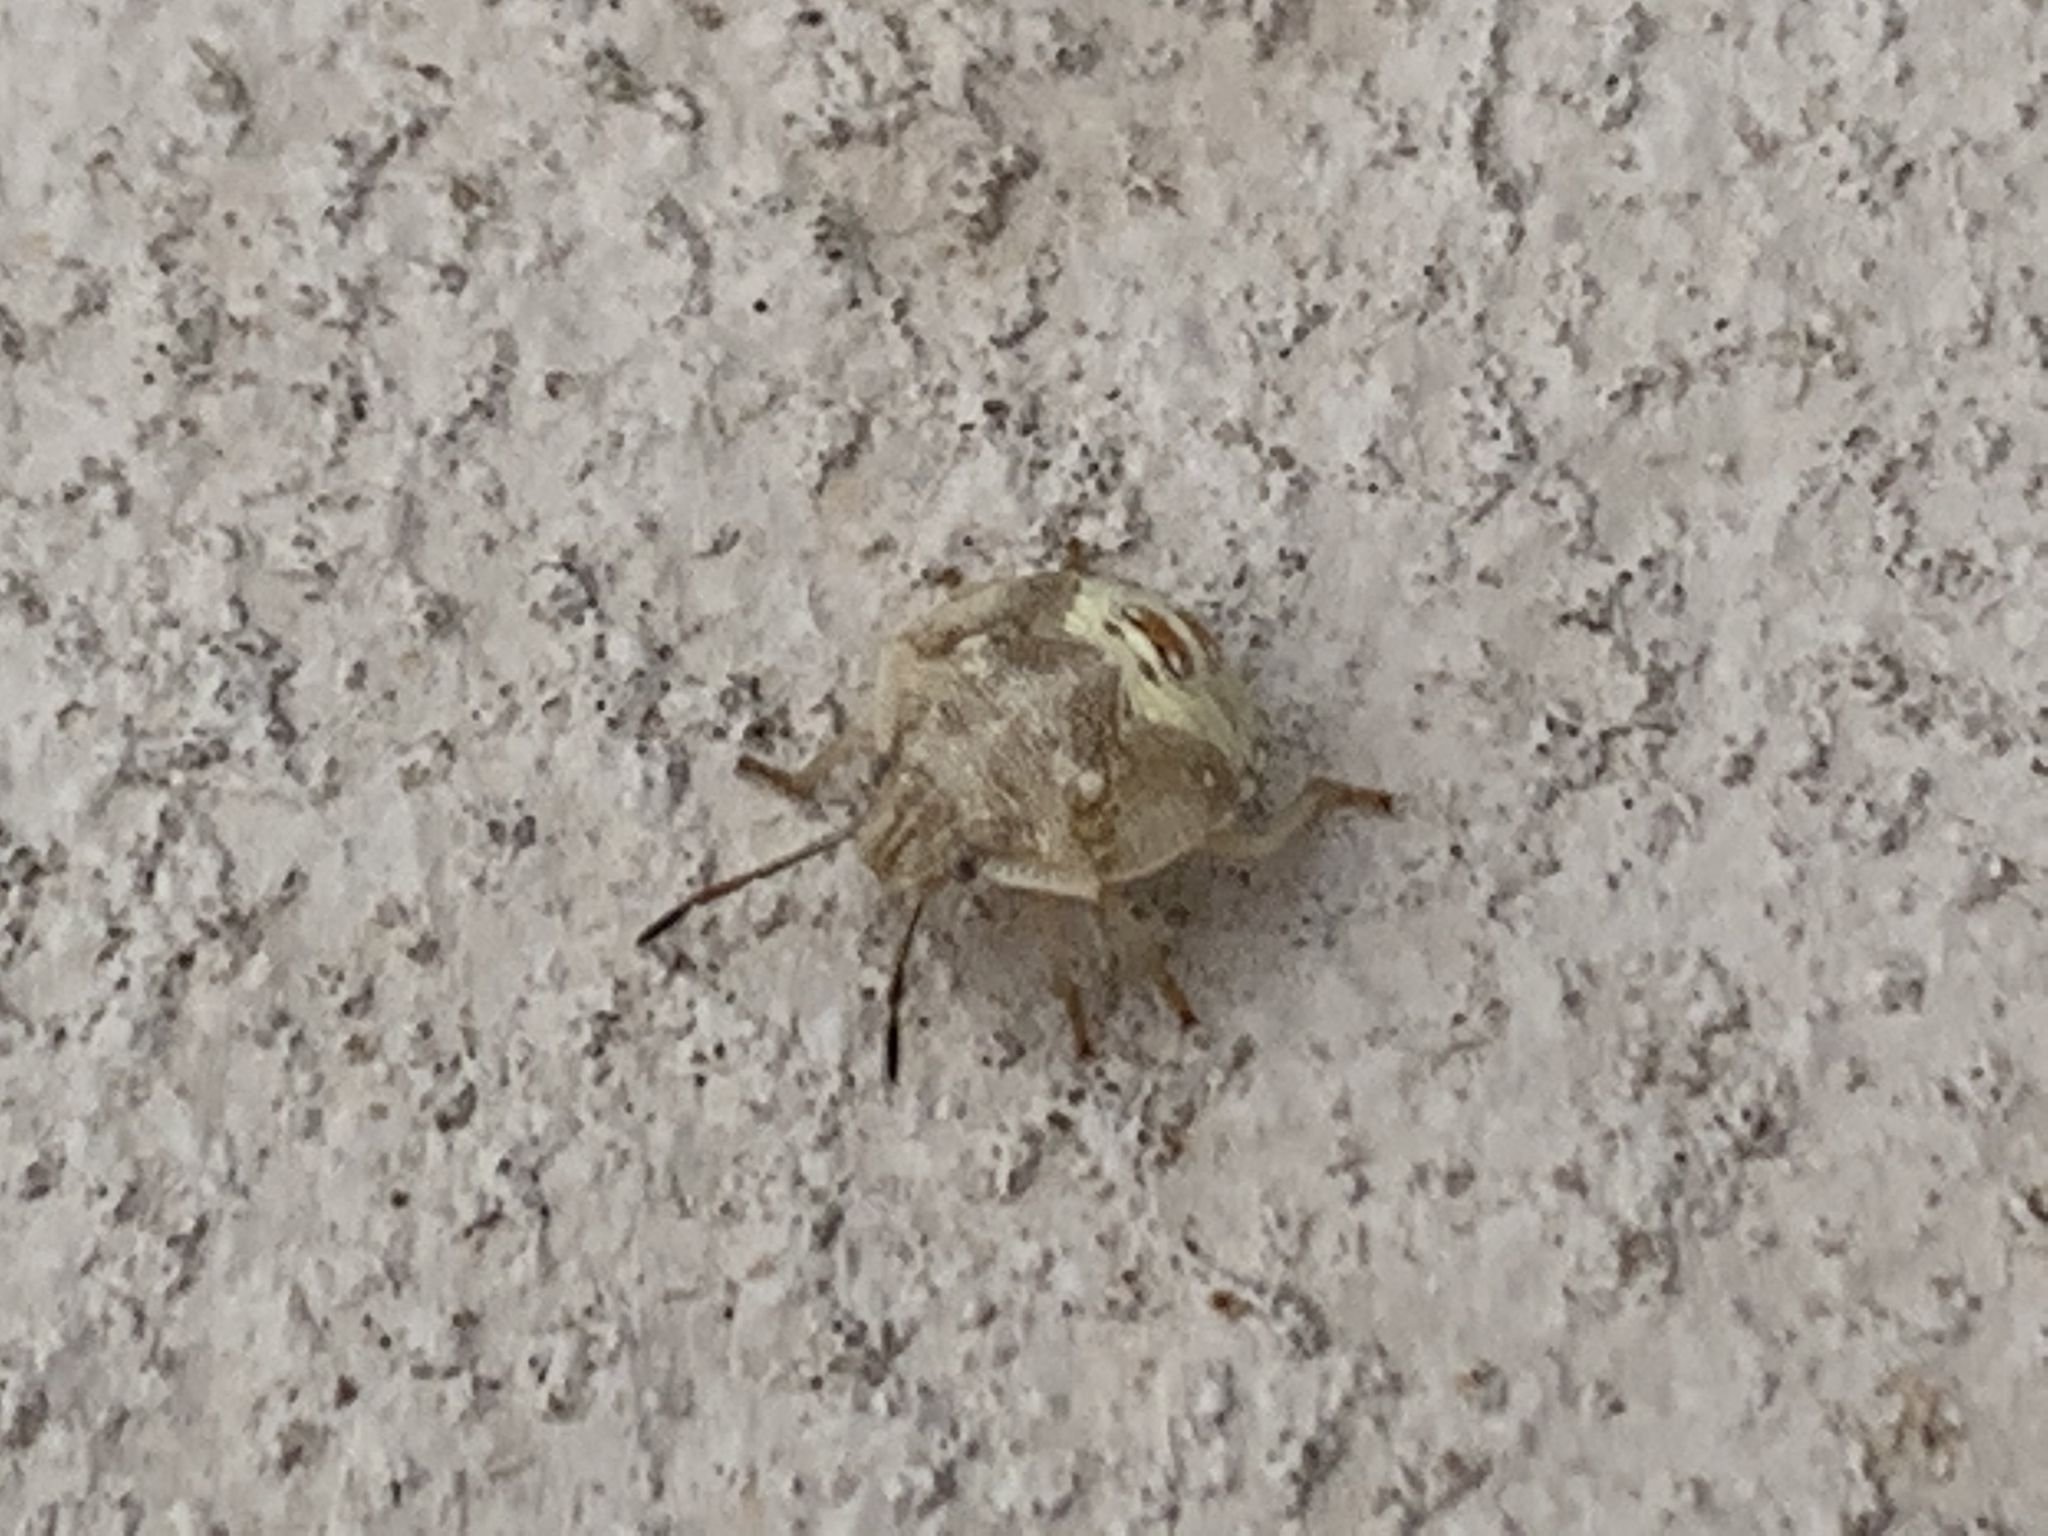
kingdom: Animalia
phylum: Arthropoda
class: Insecta
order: Hemiptera
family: Pentatomidae
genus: Thyanta
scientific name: Thyanta accerra
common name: Stink bug
